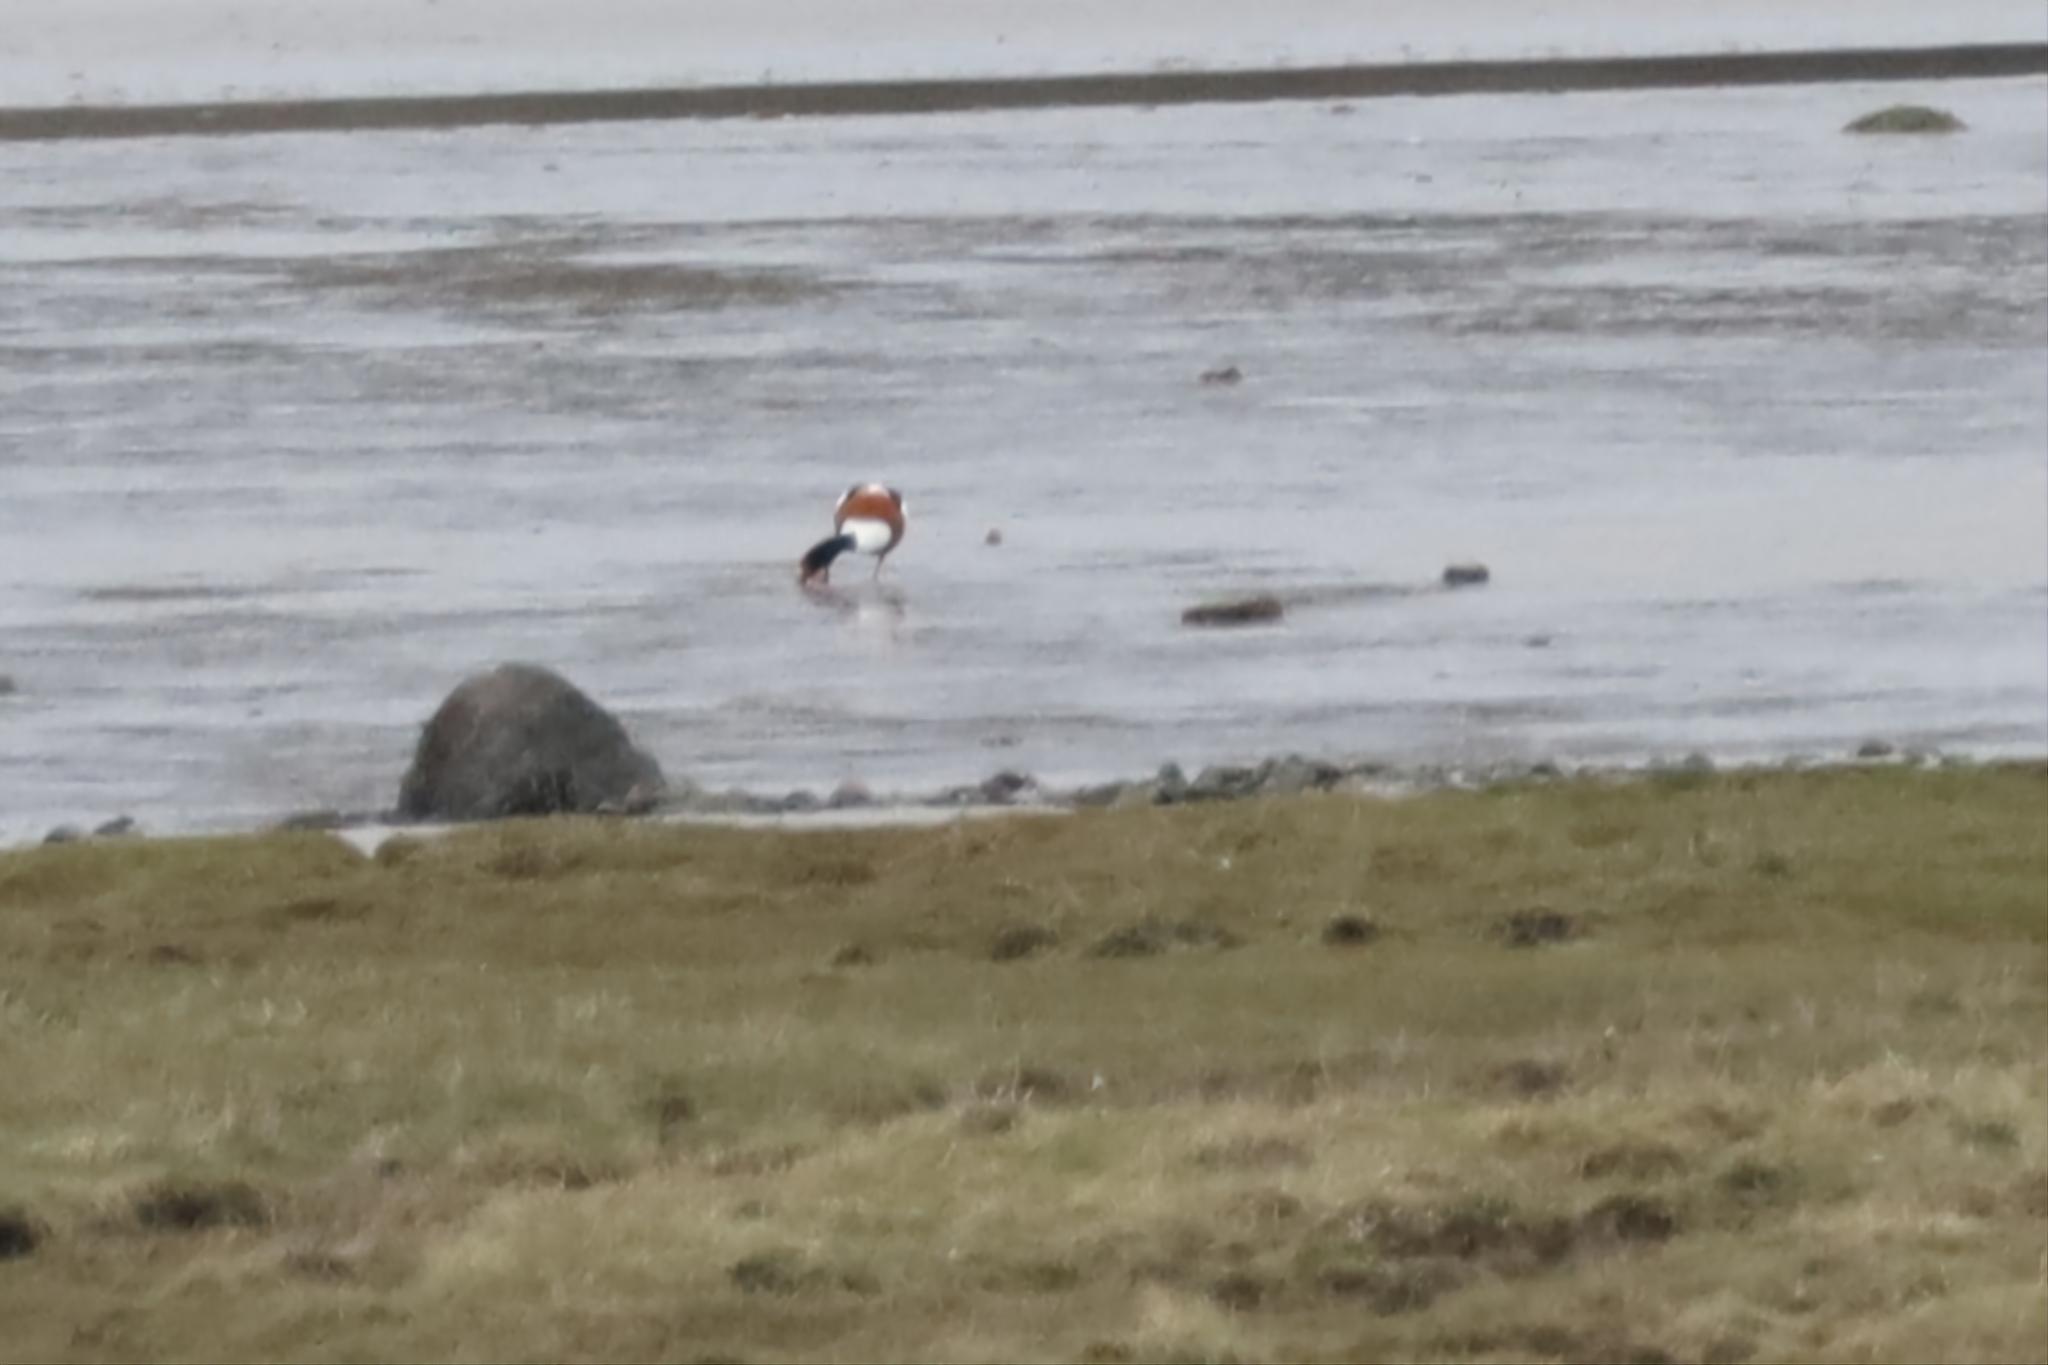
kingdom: Animalia
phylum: Chordata
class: Aves
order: Anseriformes
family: Anatidae
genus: Tadorna
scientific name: Tadorna tadorna
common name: Common shelduck
